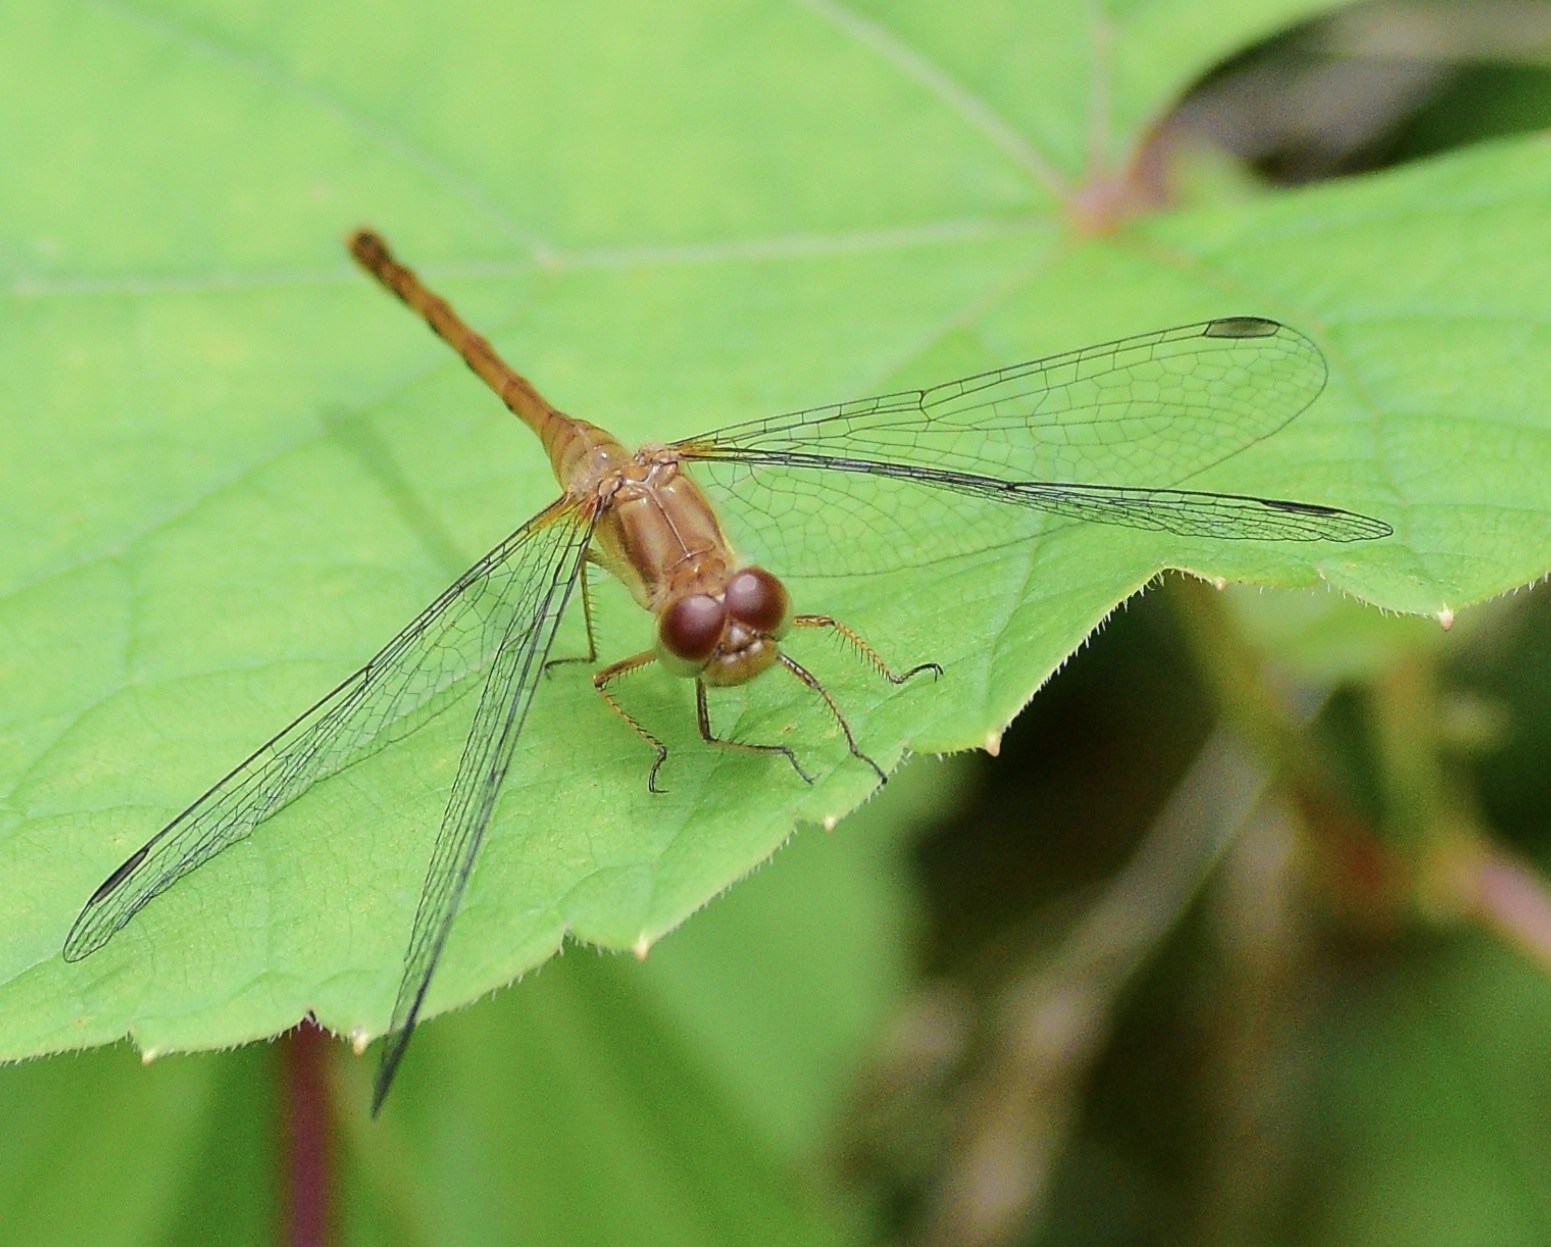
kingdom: Animalia
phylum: Arthropoda
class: Insecta
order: Odonata
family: Libellulidae
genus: Sympetrum
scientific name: Sympetrum vicinum
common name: Autumn meadowhawk
